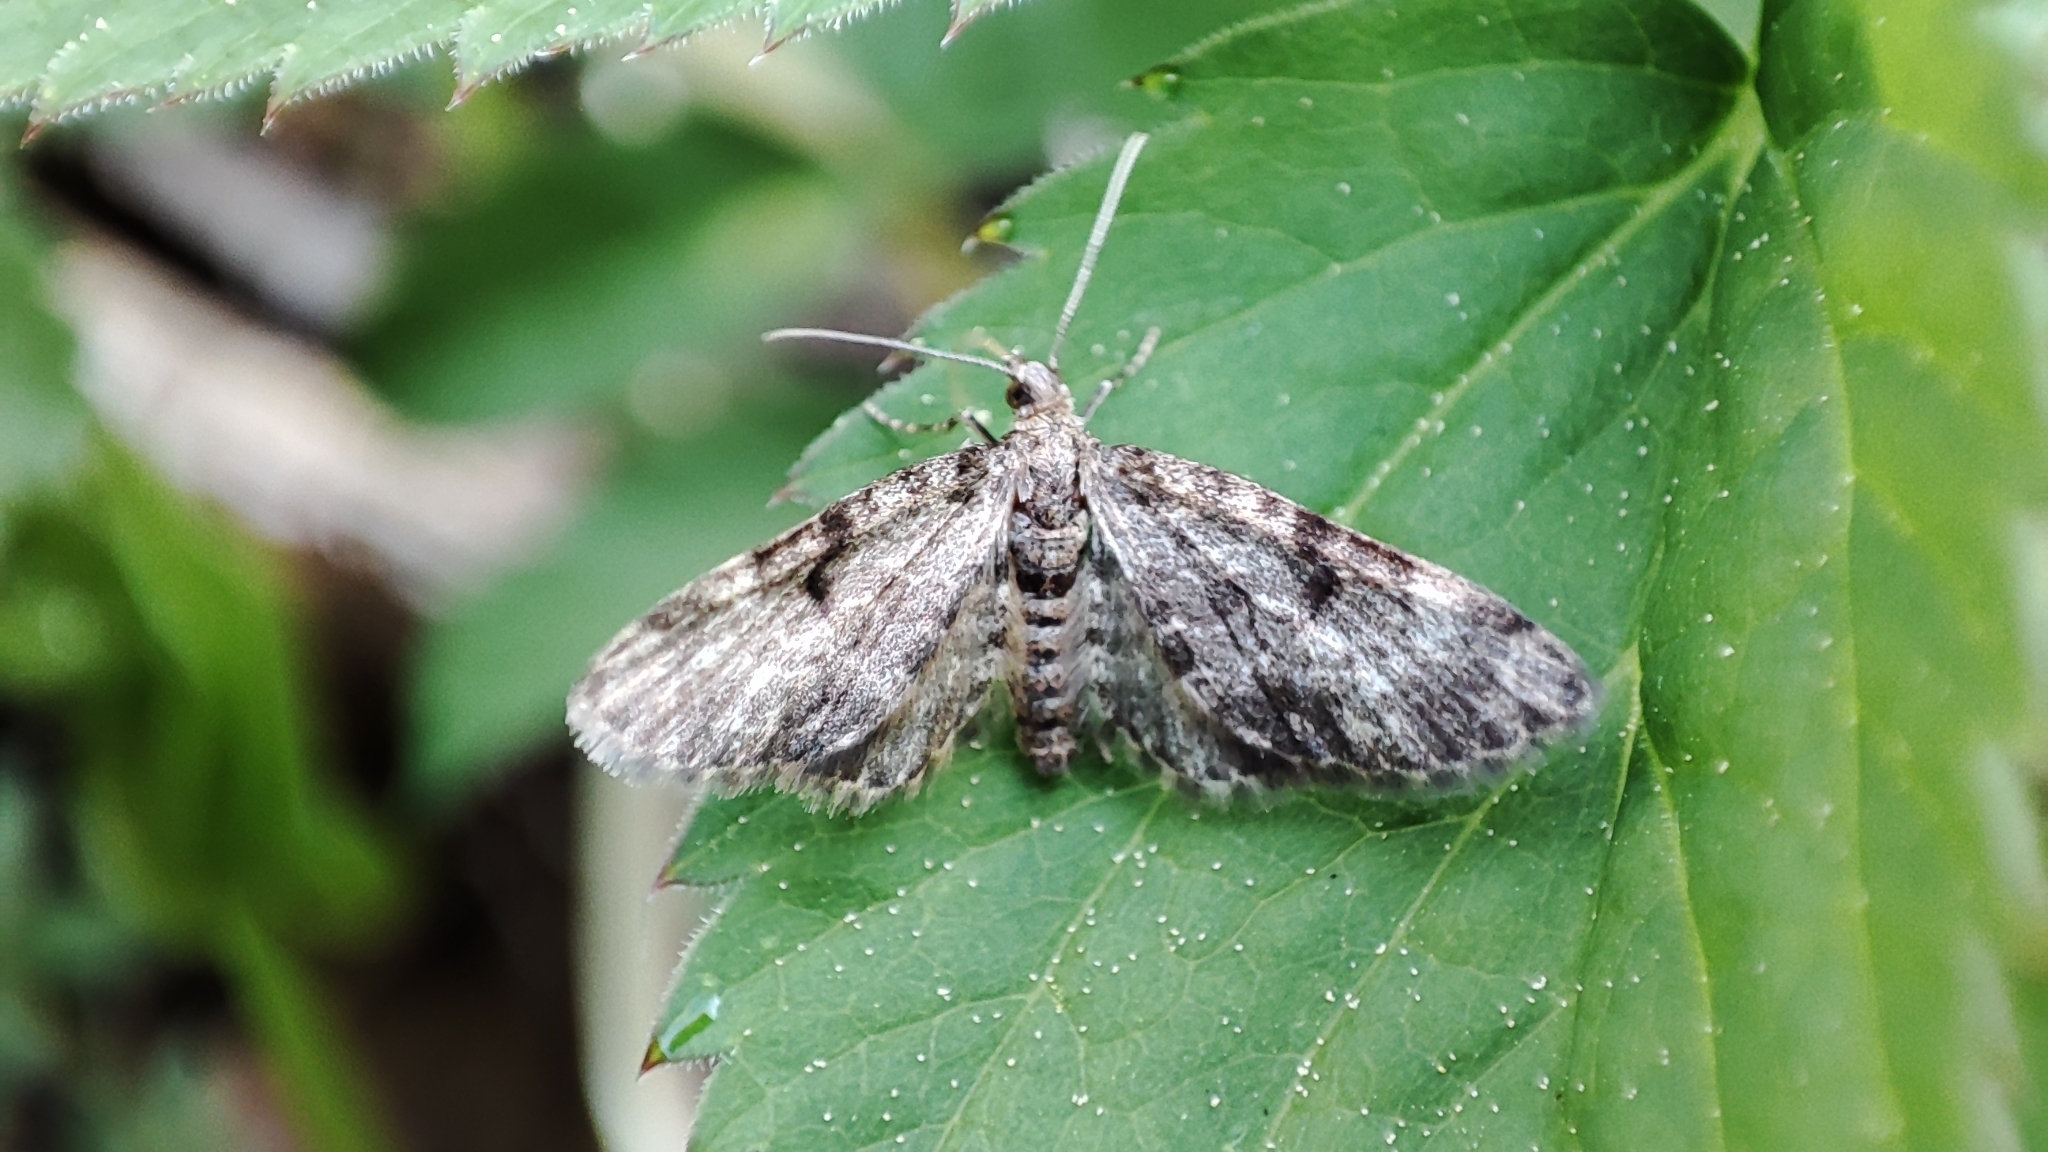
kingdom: Animalia
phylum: Arthropoda
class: Insecta
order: Lepidoptera
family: Geometridae
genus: Eupithecia
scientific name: Eupithecia tantillaria
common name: Dwarf pug
